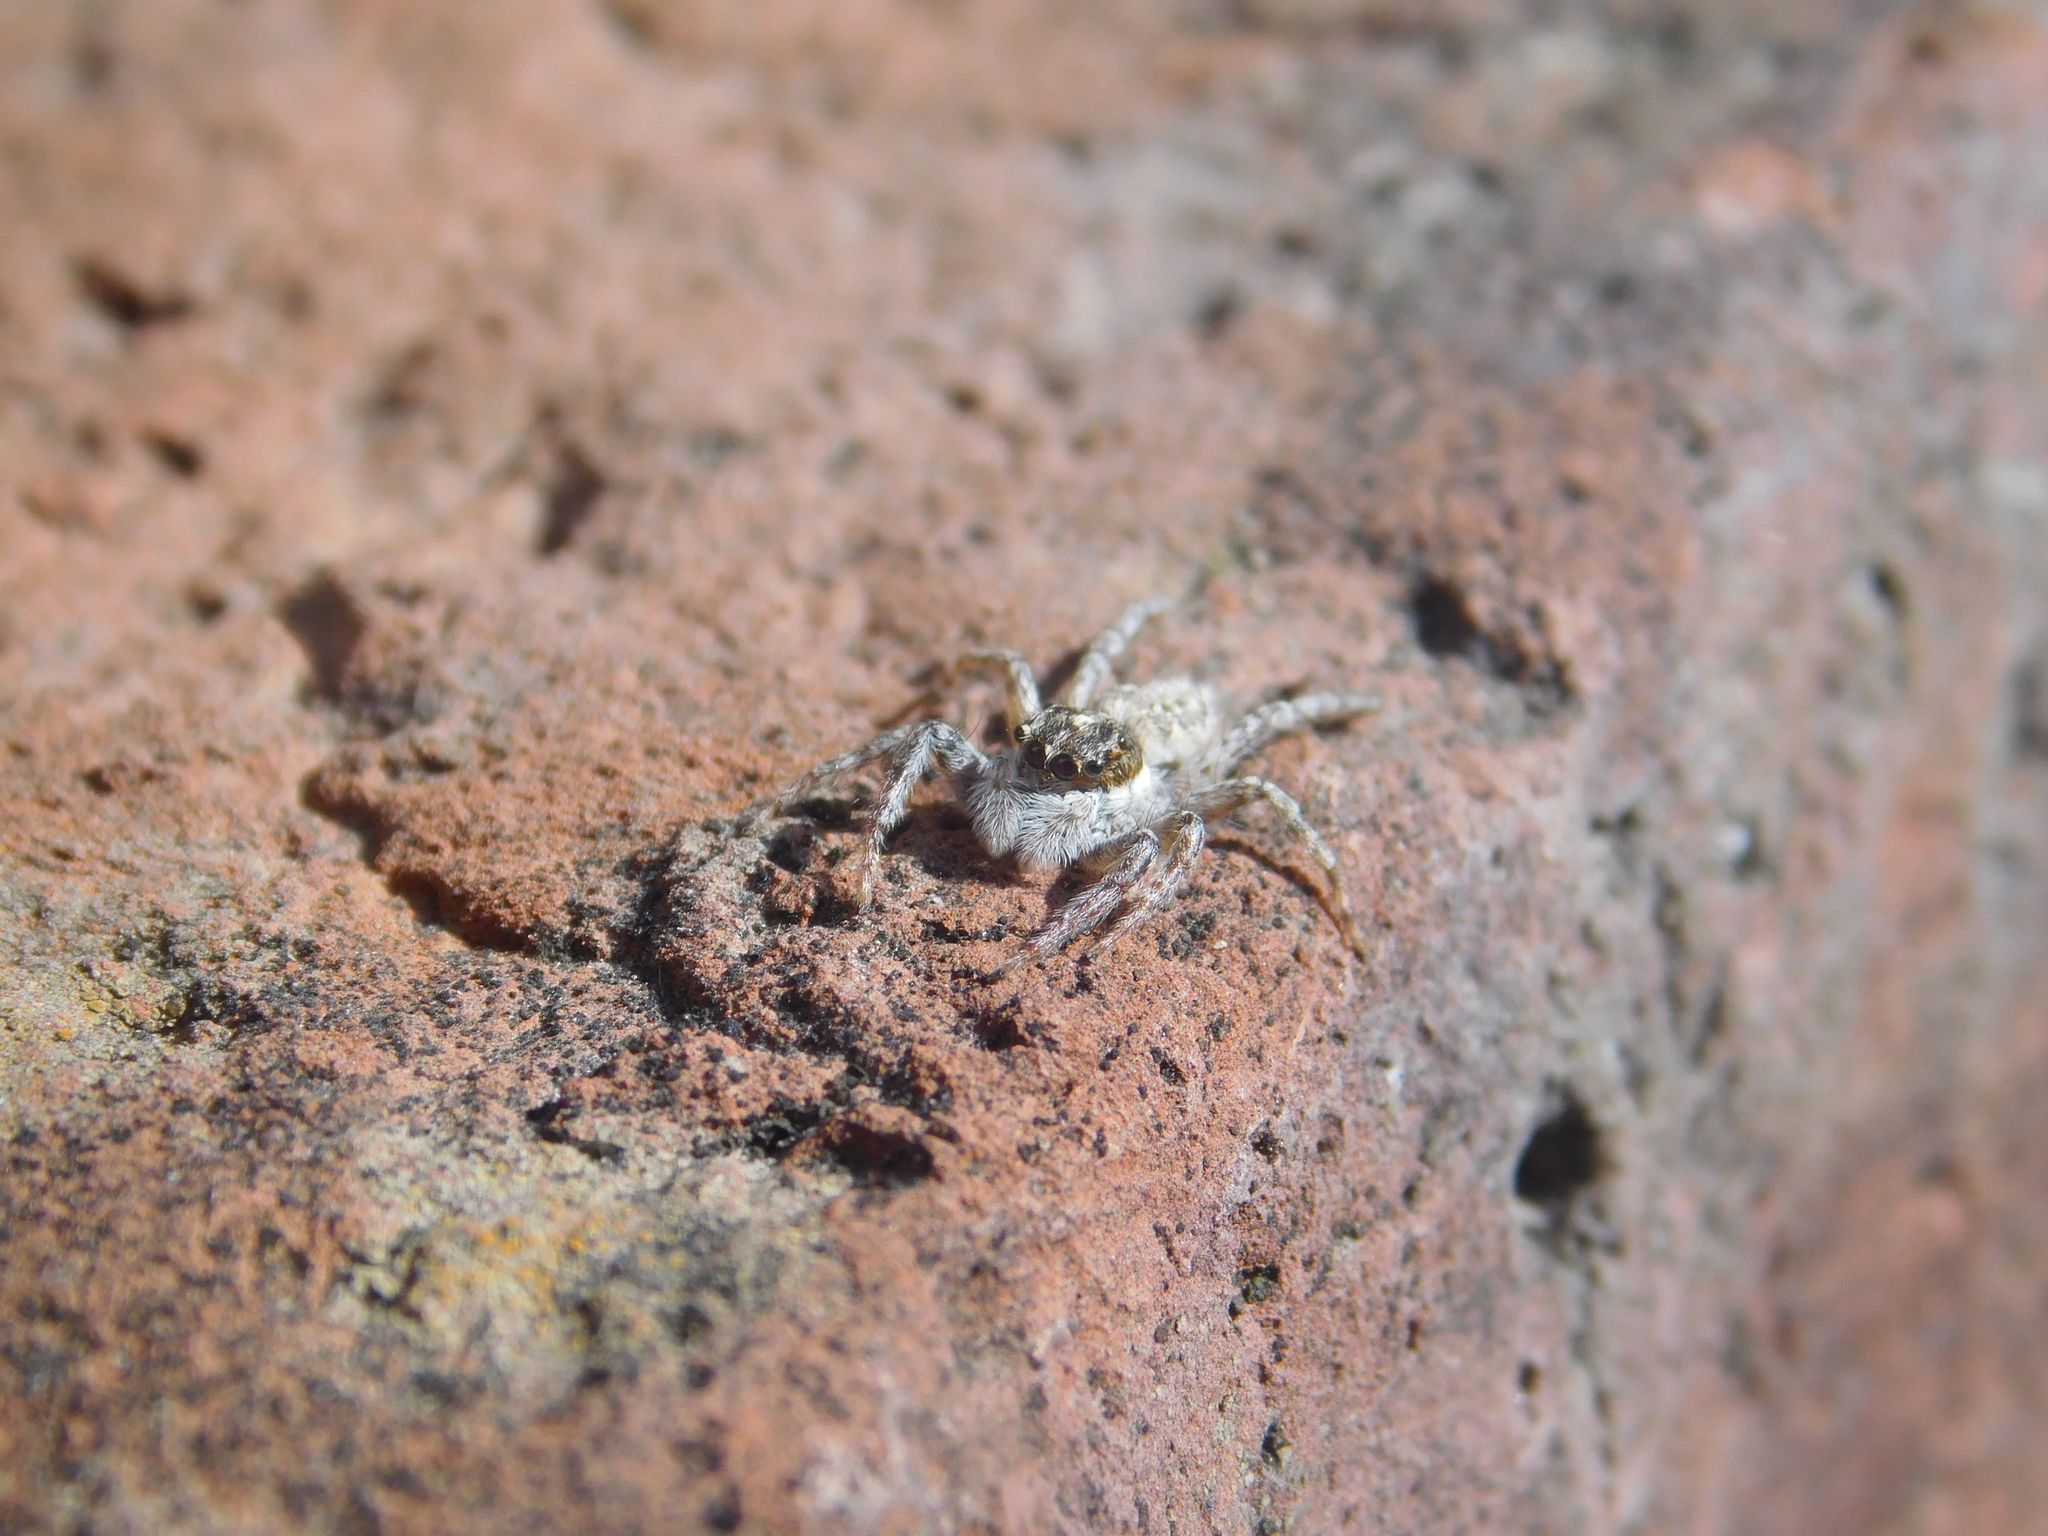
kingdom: Animalia
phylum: Arthropoda
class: Arachnida
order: Araneae
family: Salticidae
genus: Menemerus
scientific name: Menemerus semilimbatus
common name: Jumping spider
